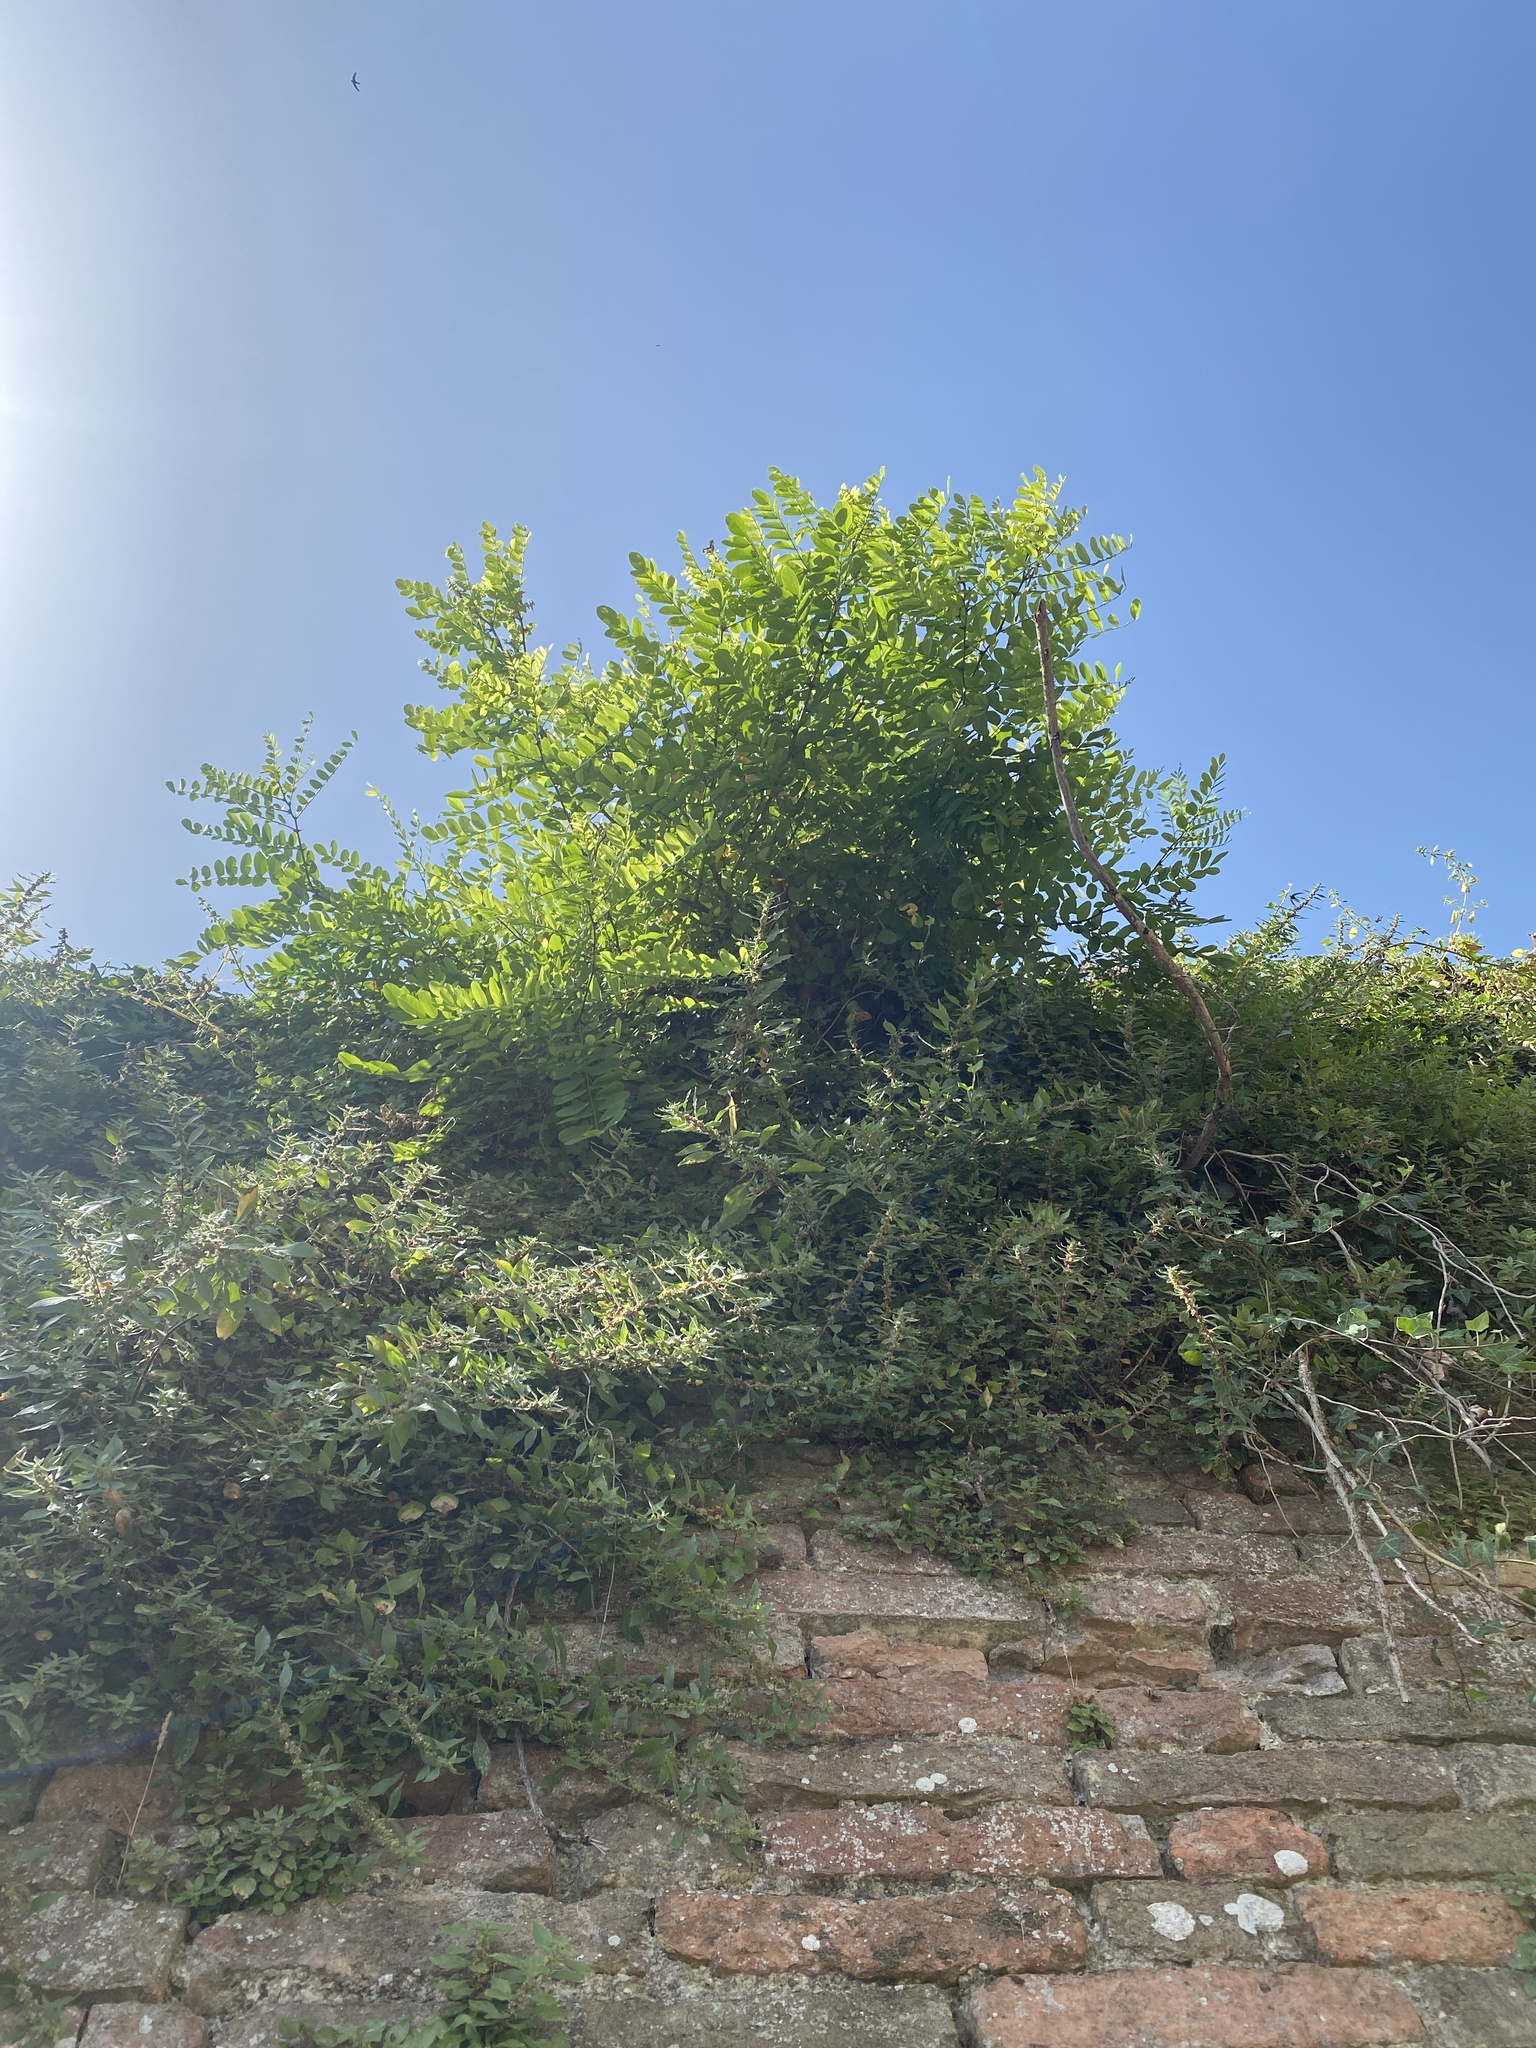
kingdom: Plantae
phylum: Tracheophyta
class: Magnoliopsida
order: Fabales
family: Fabaceae
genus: Robinia
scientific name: Robinia pseudoacacia
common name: Black locust
